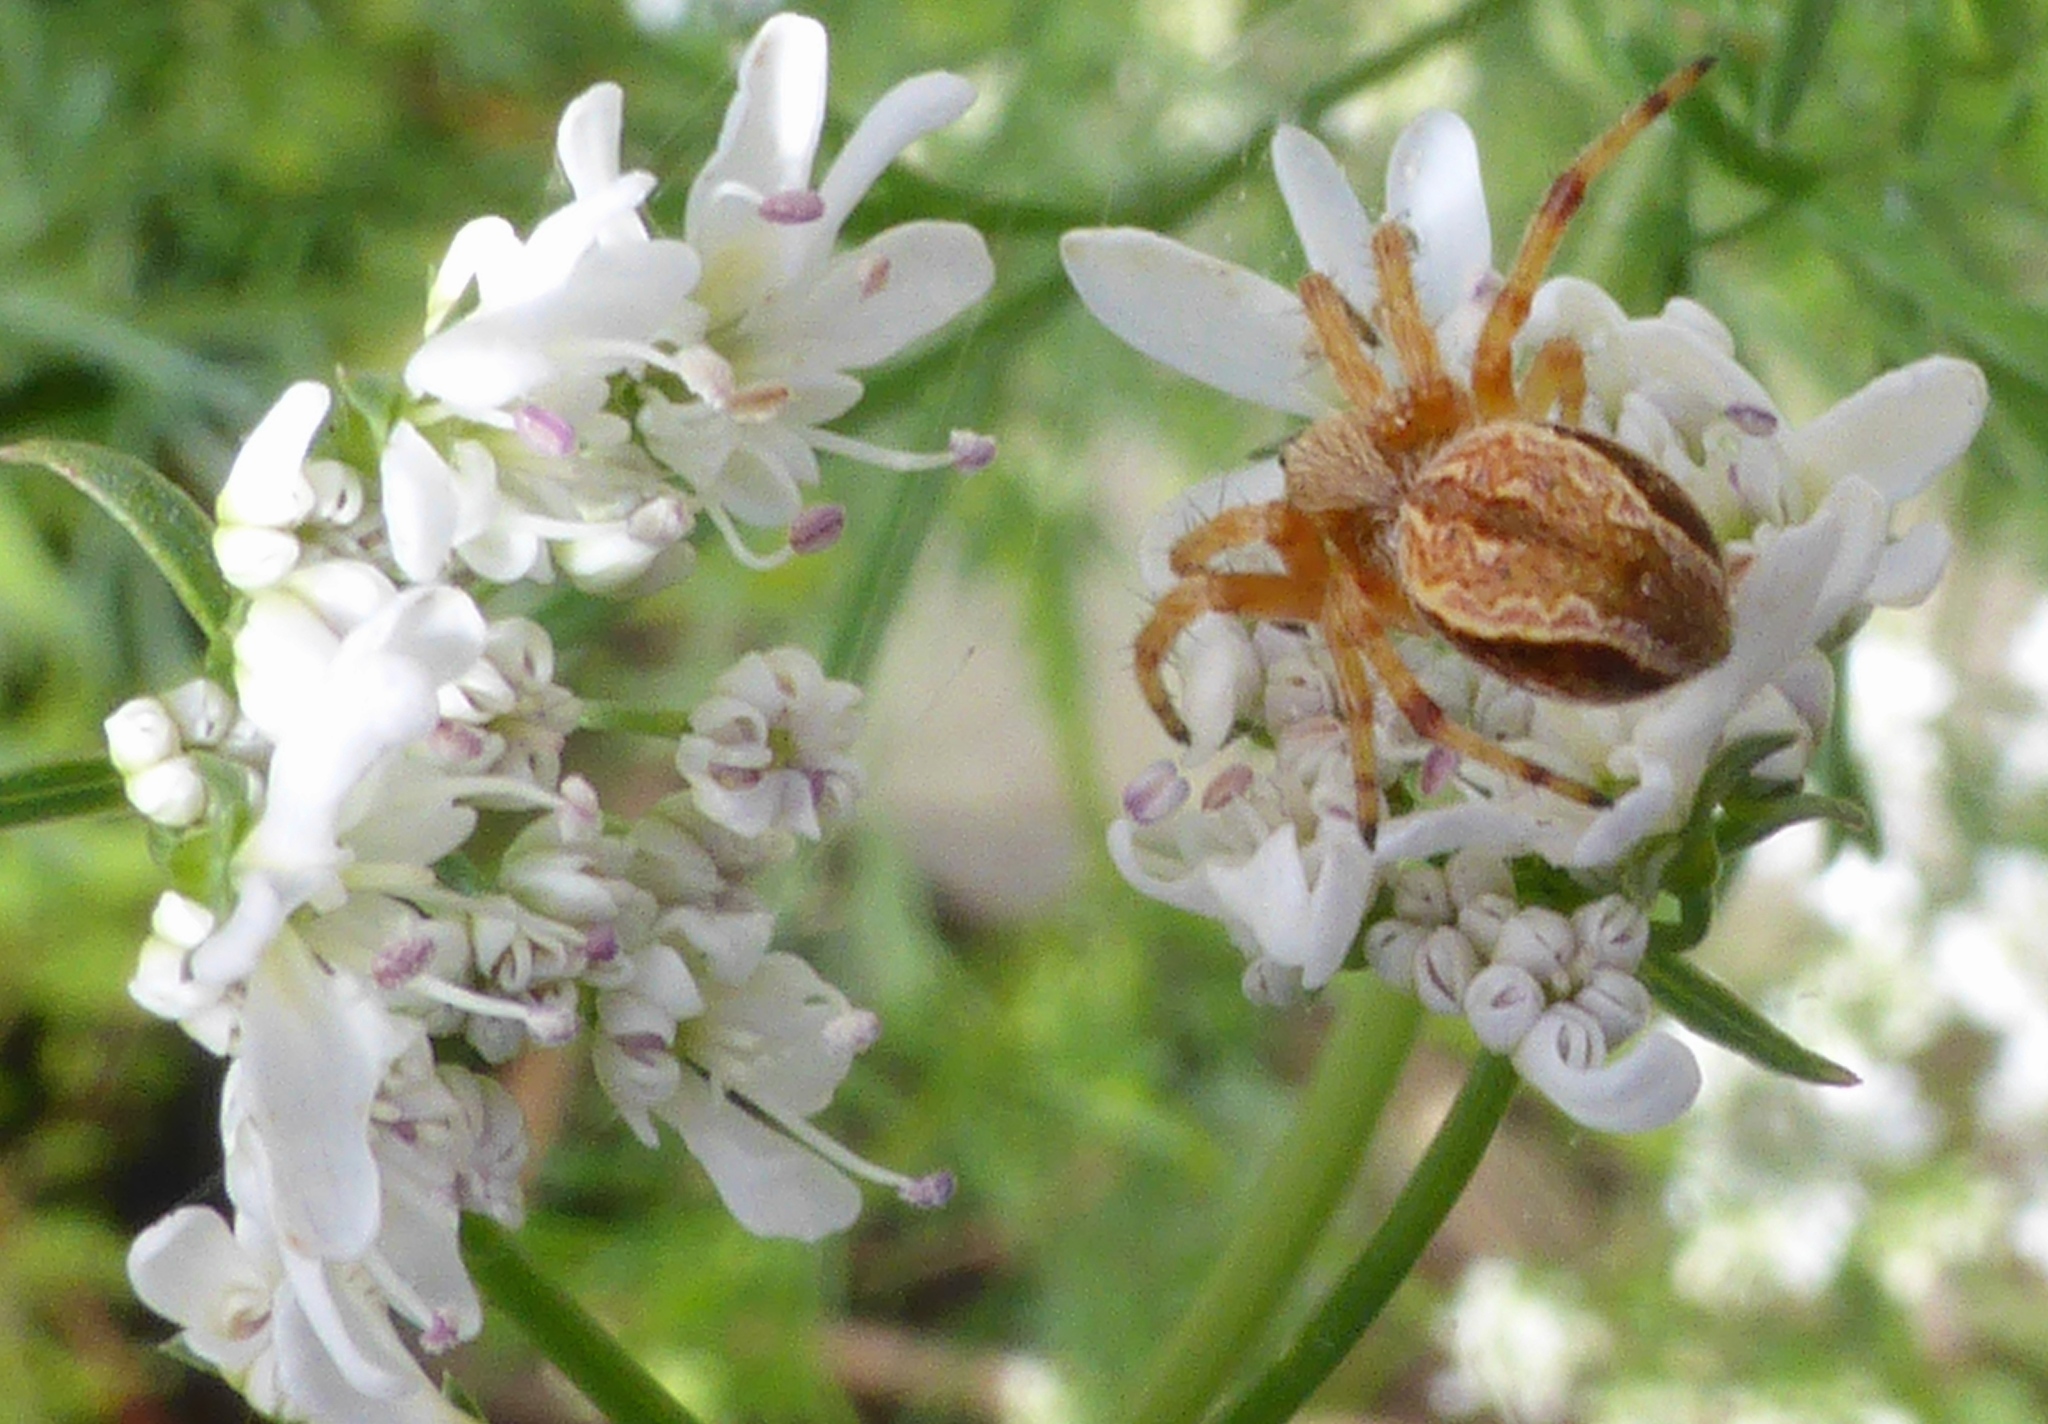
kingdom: Animalia
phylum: Arthropoda
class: Arachnida
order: Araneae
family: Araneidae
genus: Salsa
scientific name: Salsa fuliginata
